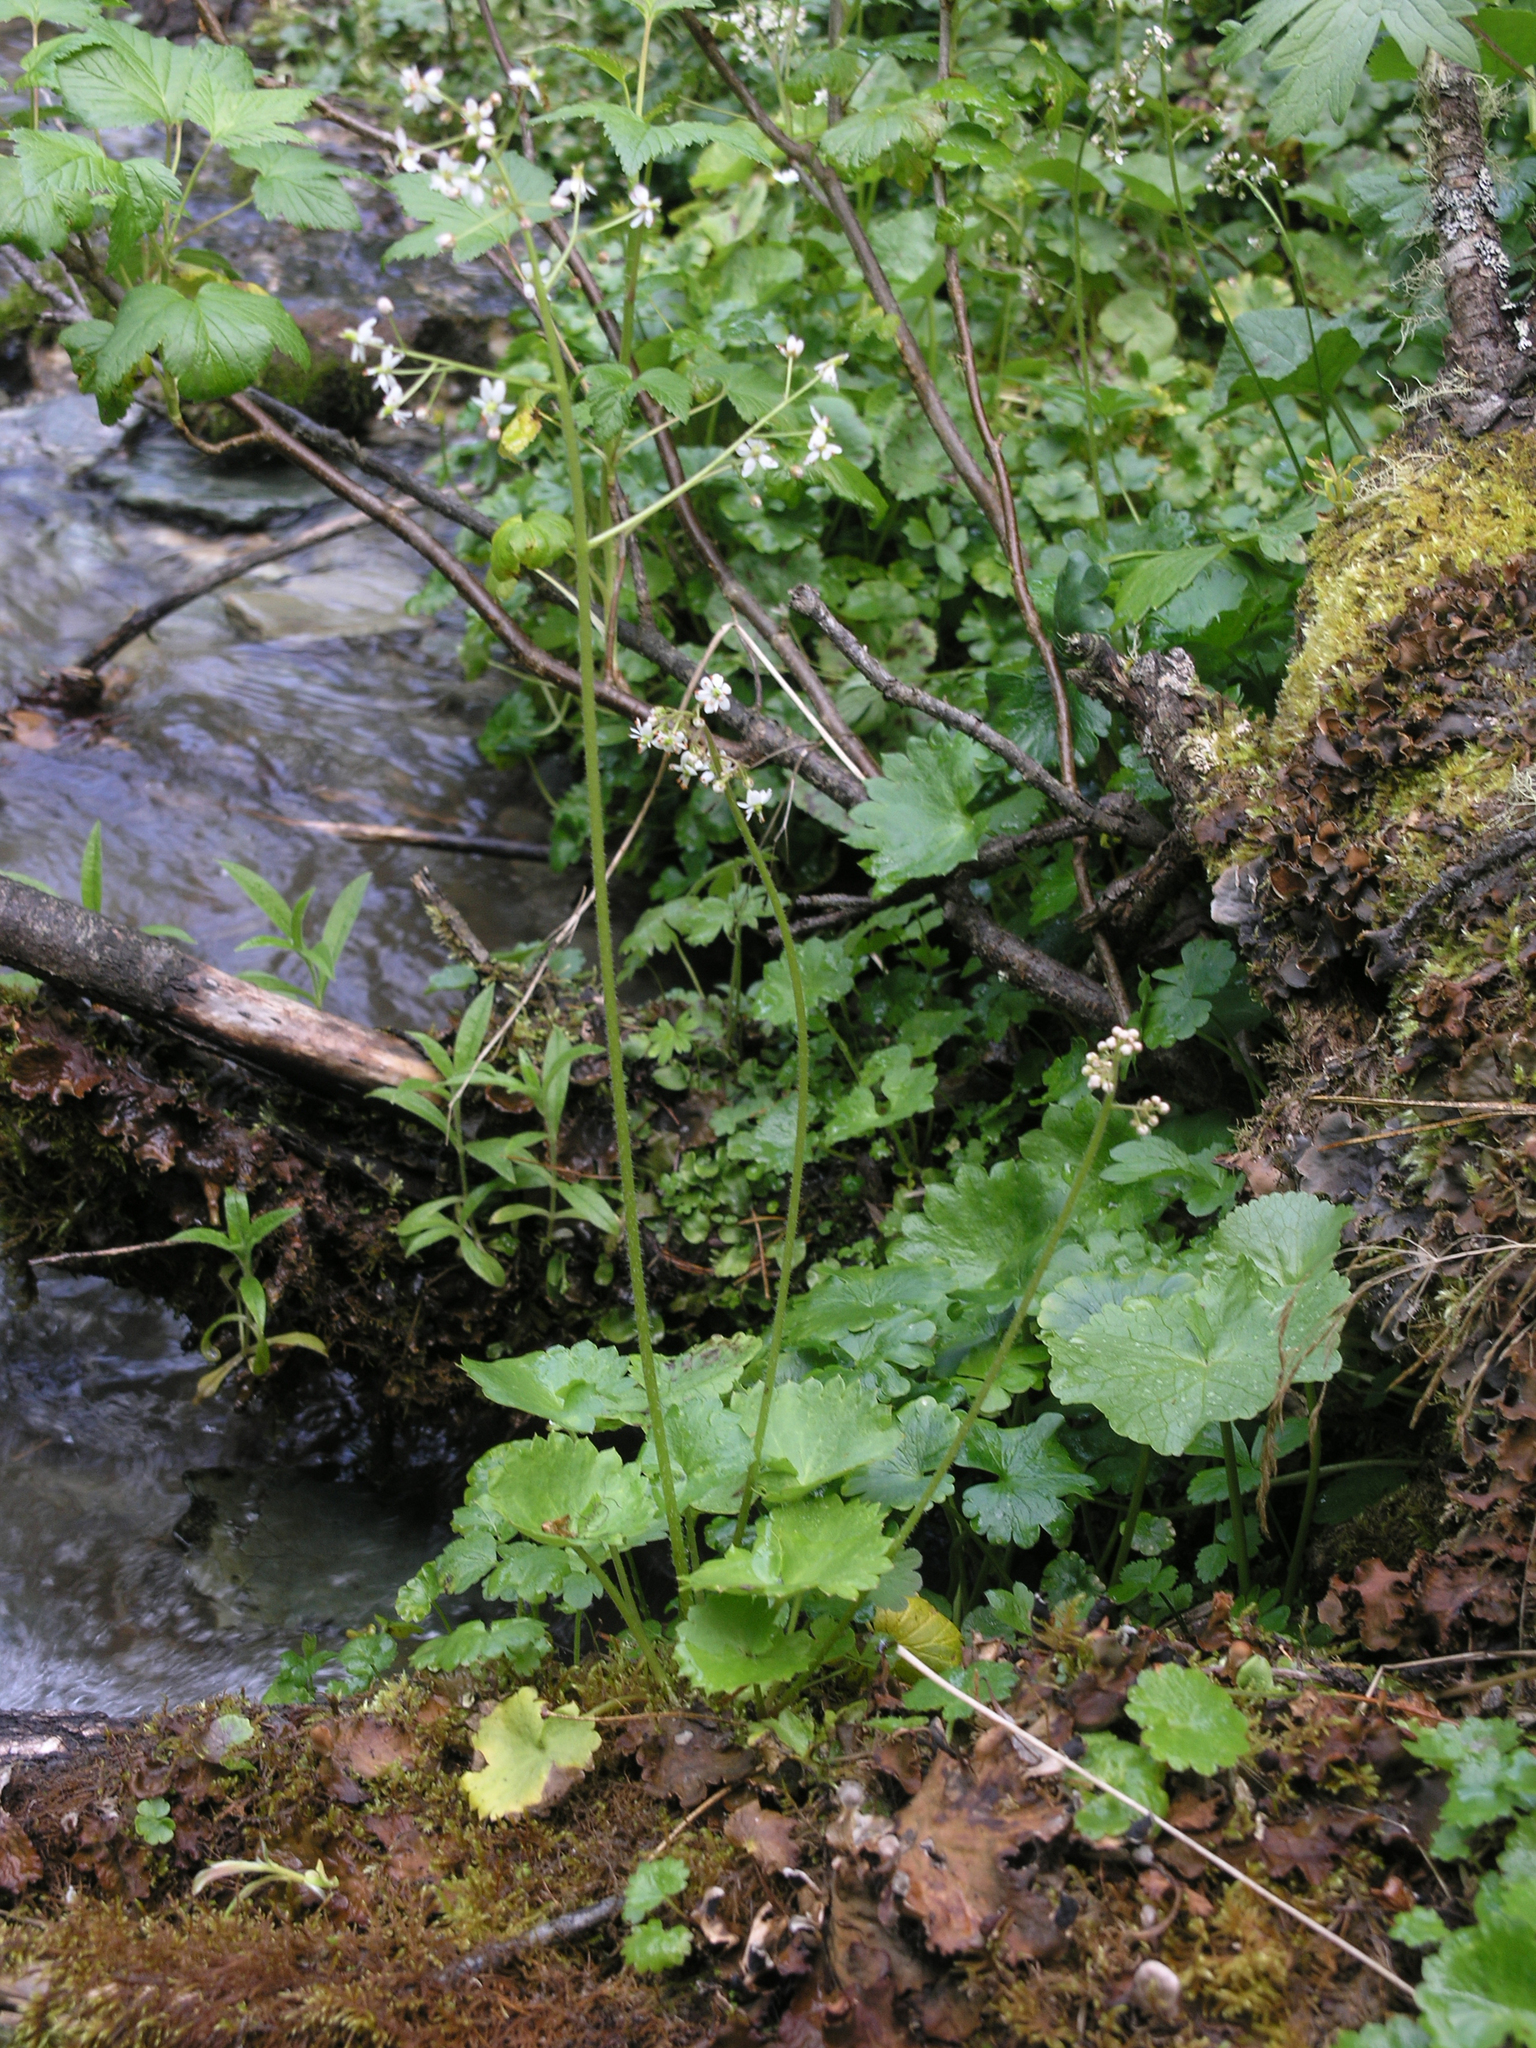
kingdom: Plantae
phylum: Tracheophyta
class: Magnoliopsida
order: Saxifragales
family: Saxifragaceae
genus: Micranthes
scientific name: Micranthes nelsoniana
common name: Nelson's saxifrage
